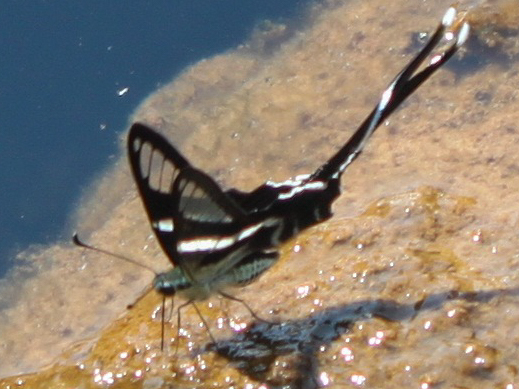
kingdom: Animalia
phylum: Arthropoda
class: Insecta
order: Lepidoptera
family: Papilionidae
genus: Lamproptera
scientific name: Lamproptera curius
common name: White dragontail
